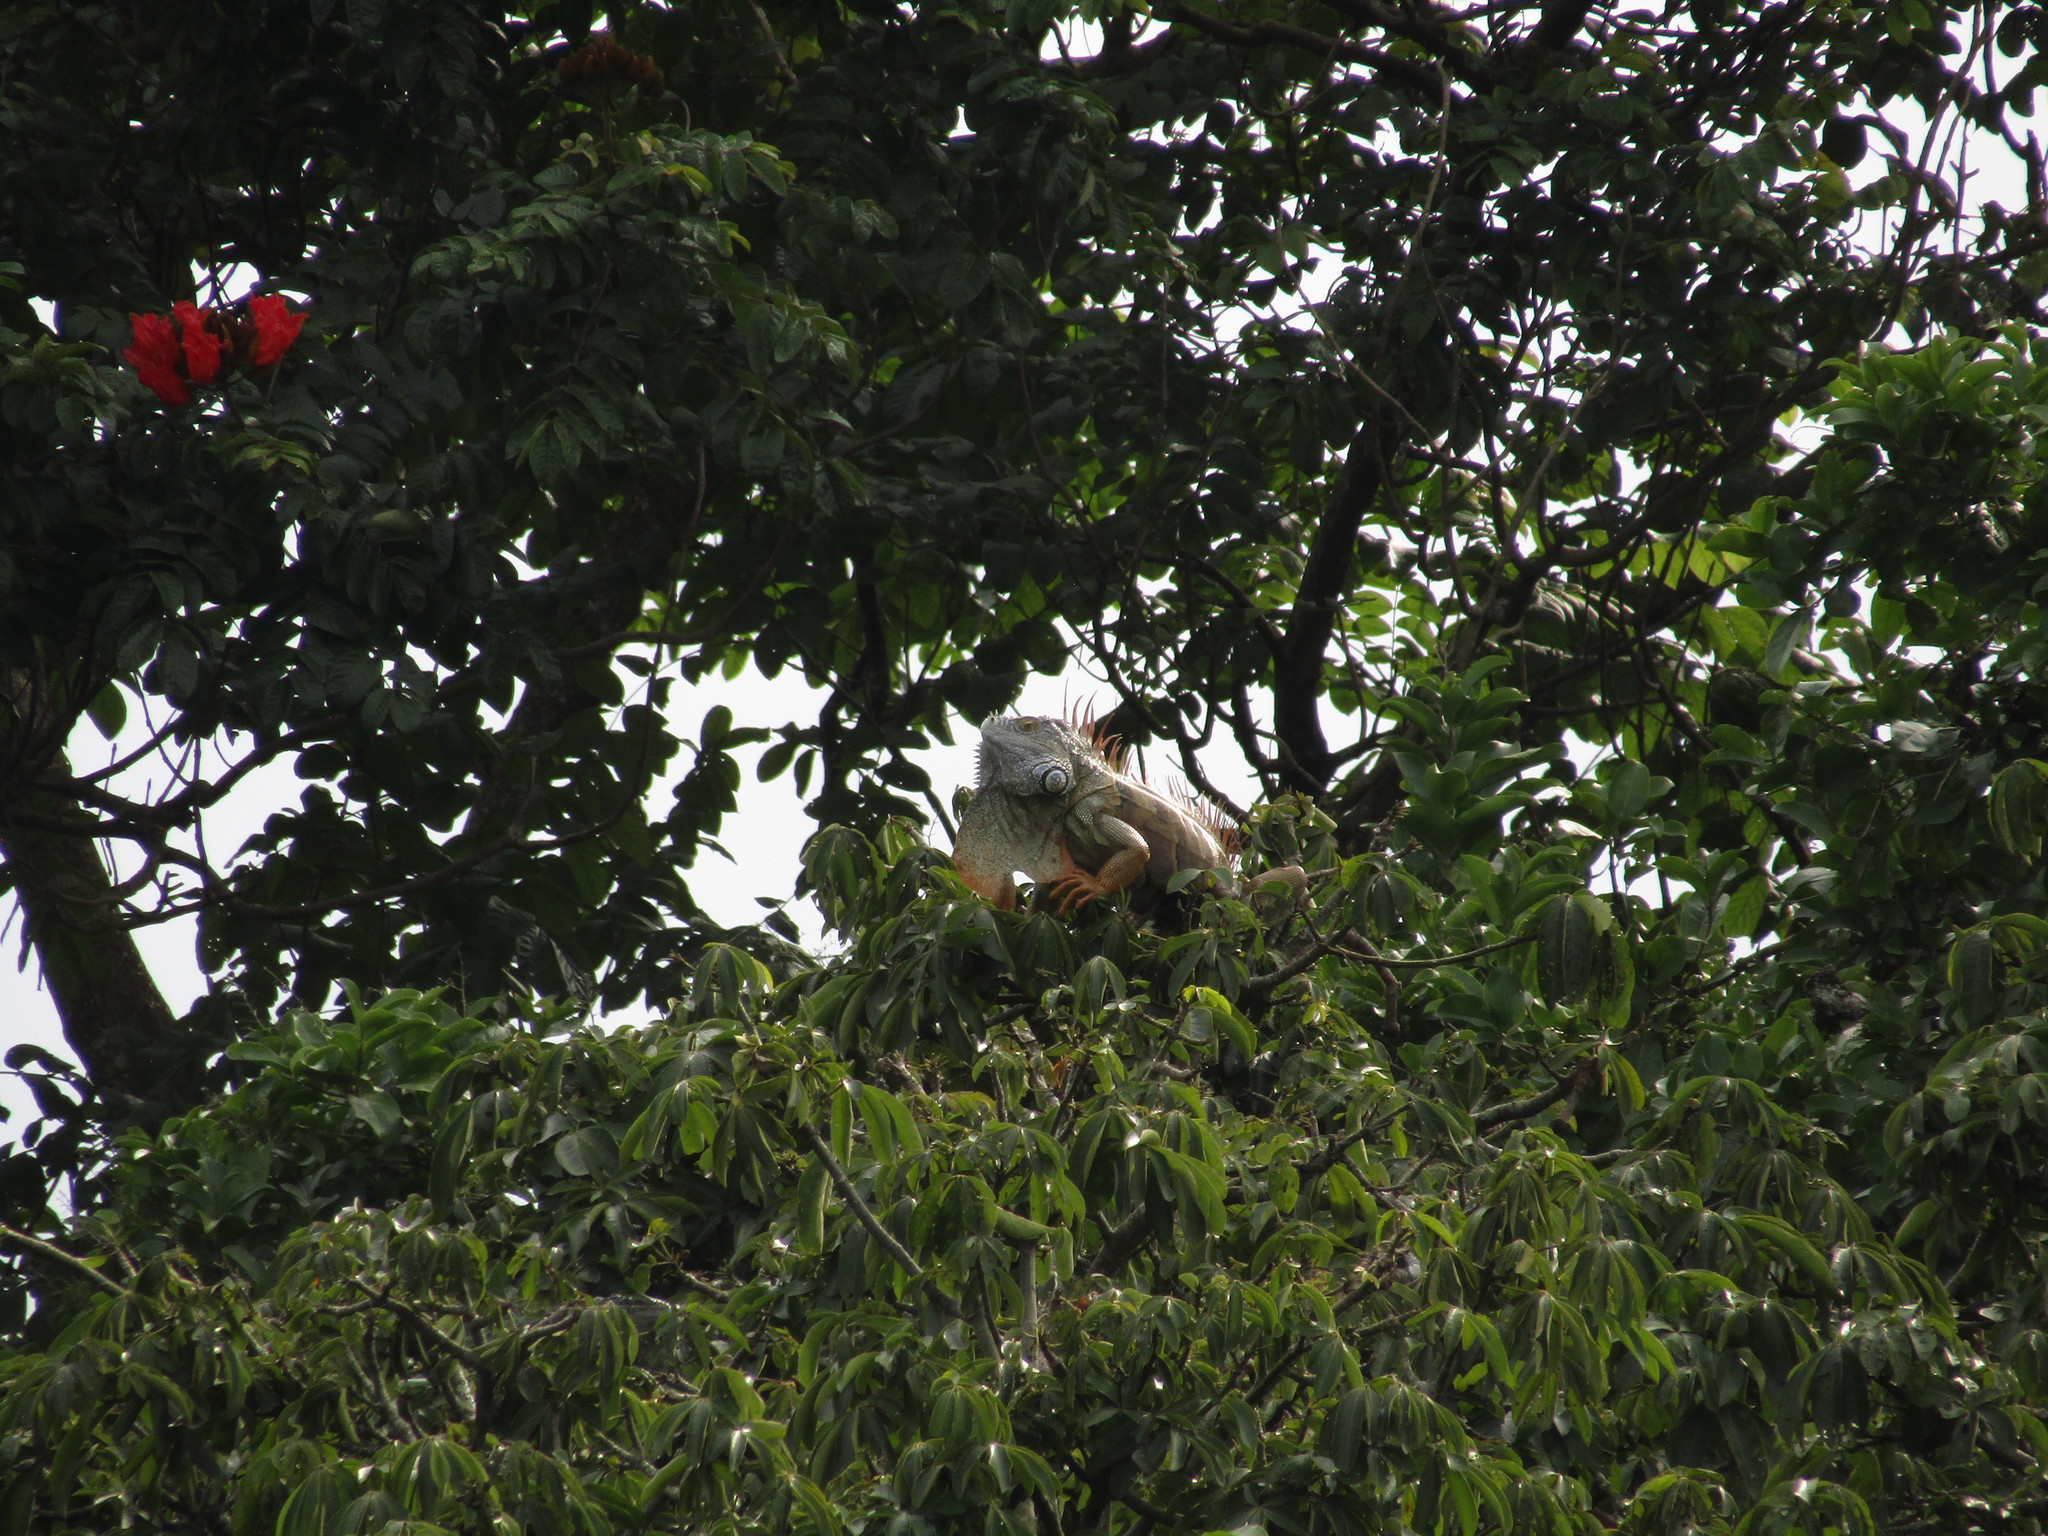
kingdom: Animalia
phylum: Chordata
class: Squamata
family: Iguanidae
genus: Iguana
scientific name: Iguana iguana
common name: Green iguana
